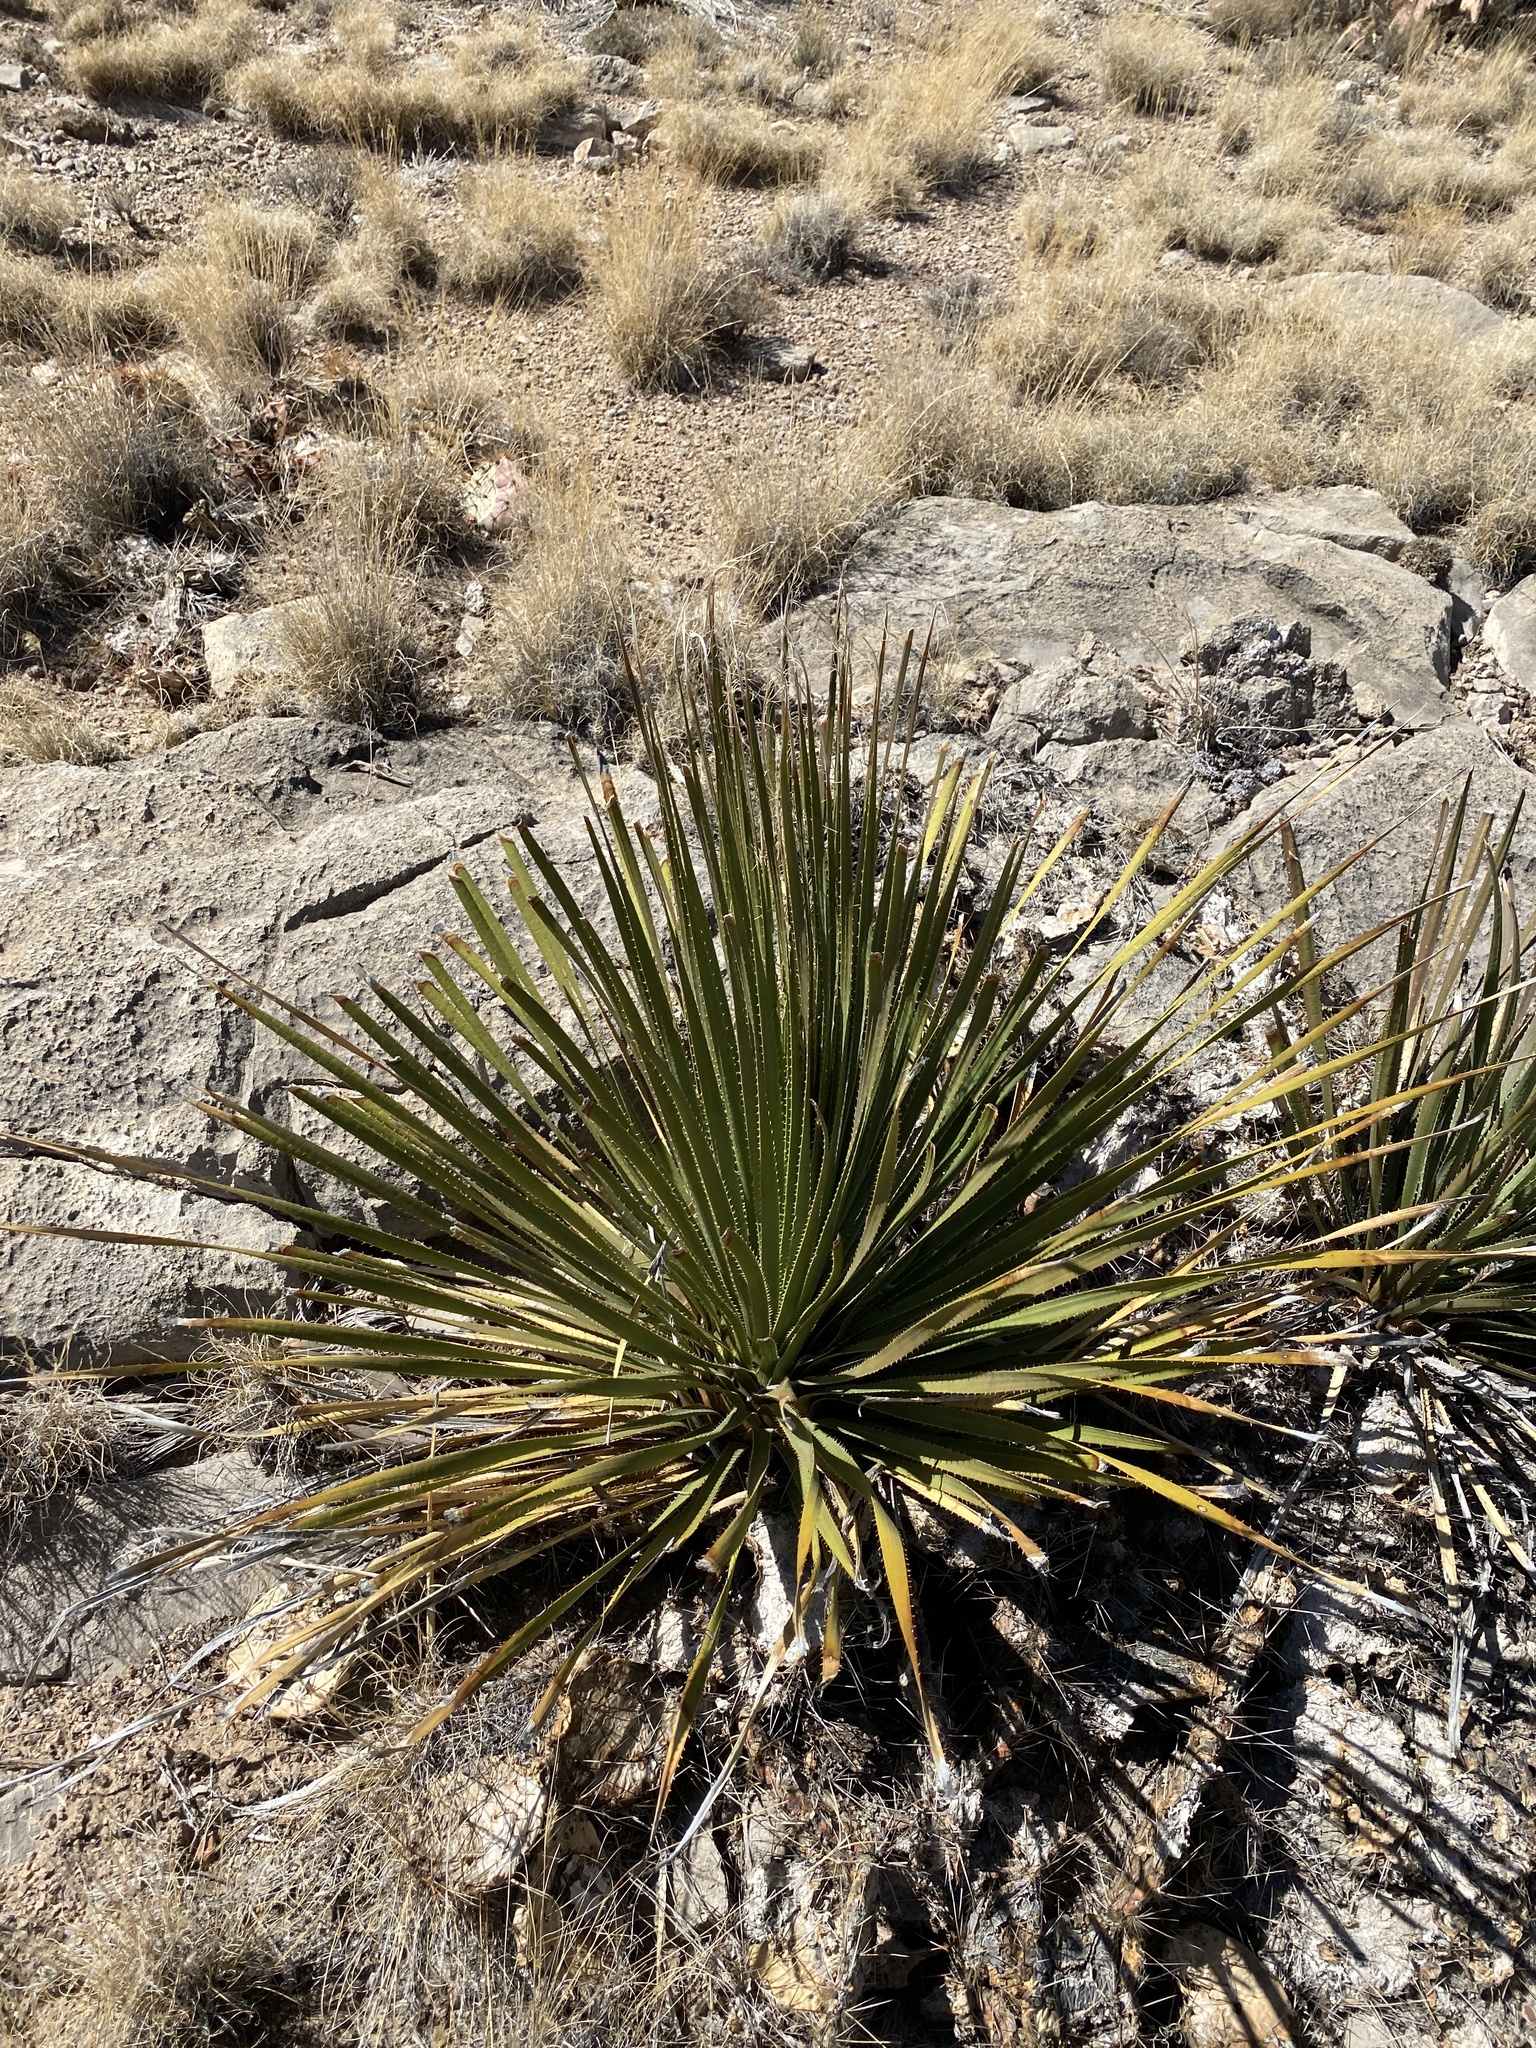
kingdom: Plantae
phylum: Tracheophyta
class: Liliopsida
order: Asparagales
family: Asparagaceae
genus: Dasylirion
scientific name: Dasylirion wheeleri
